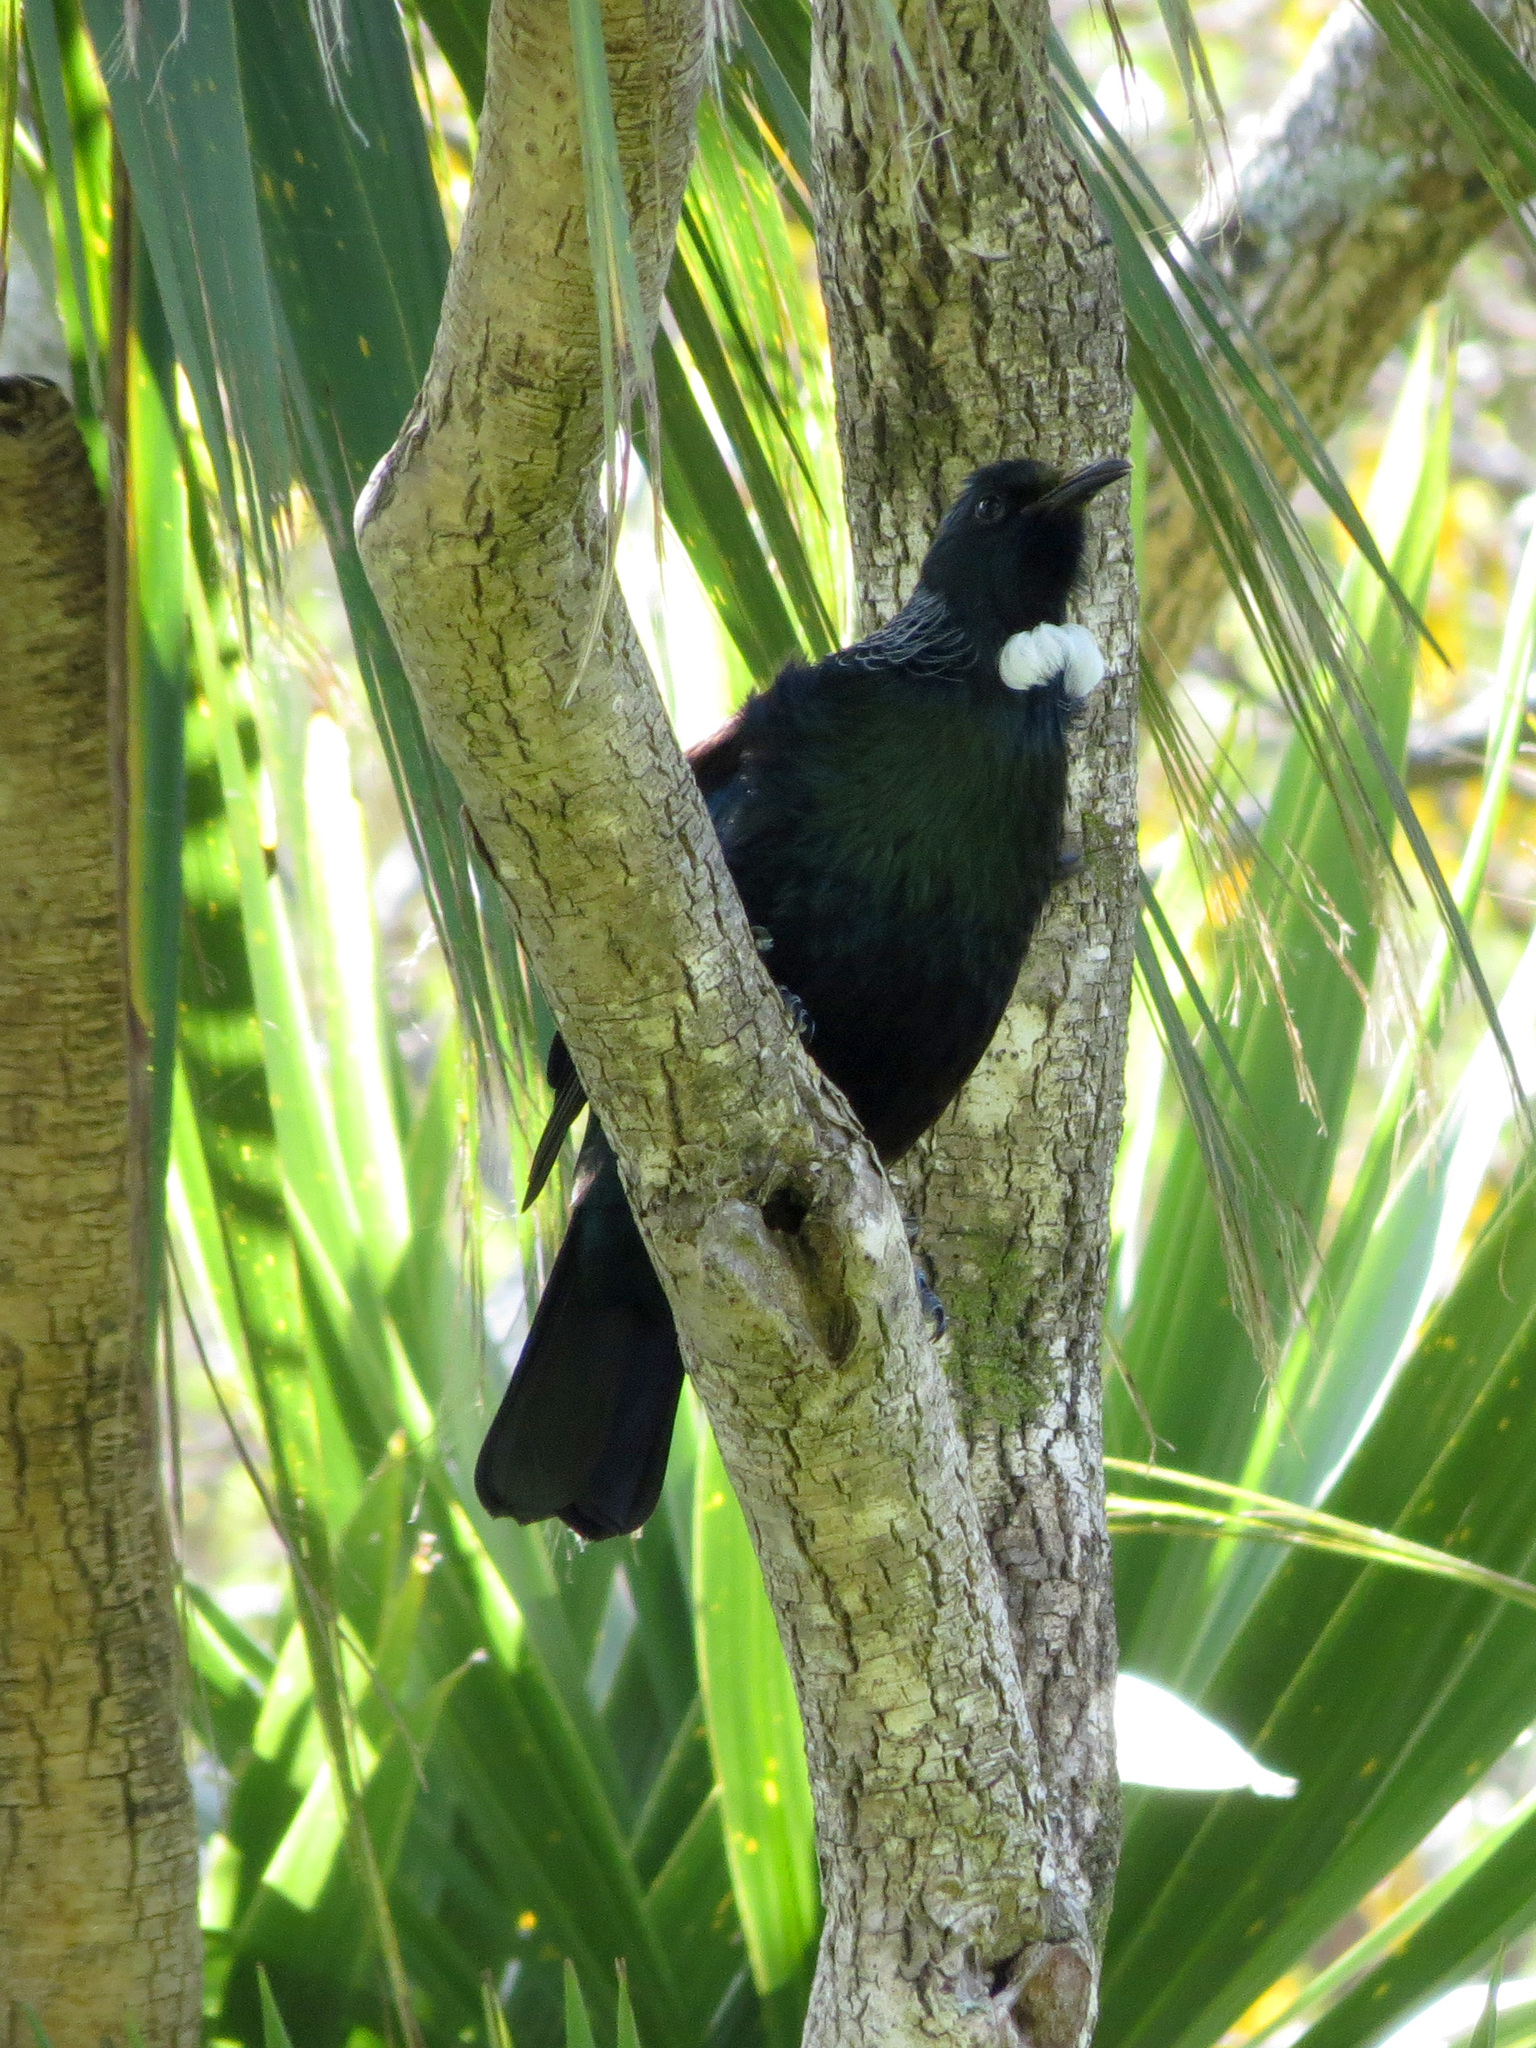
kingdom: Animalia
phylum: Chordata
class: Aves
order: Passeriformes
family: Meliphagidae
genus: Prosthemadera
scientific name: Prosthemadera novaeseelandiae
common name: Tui
